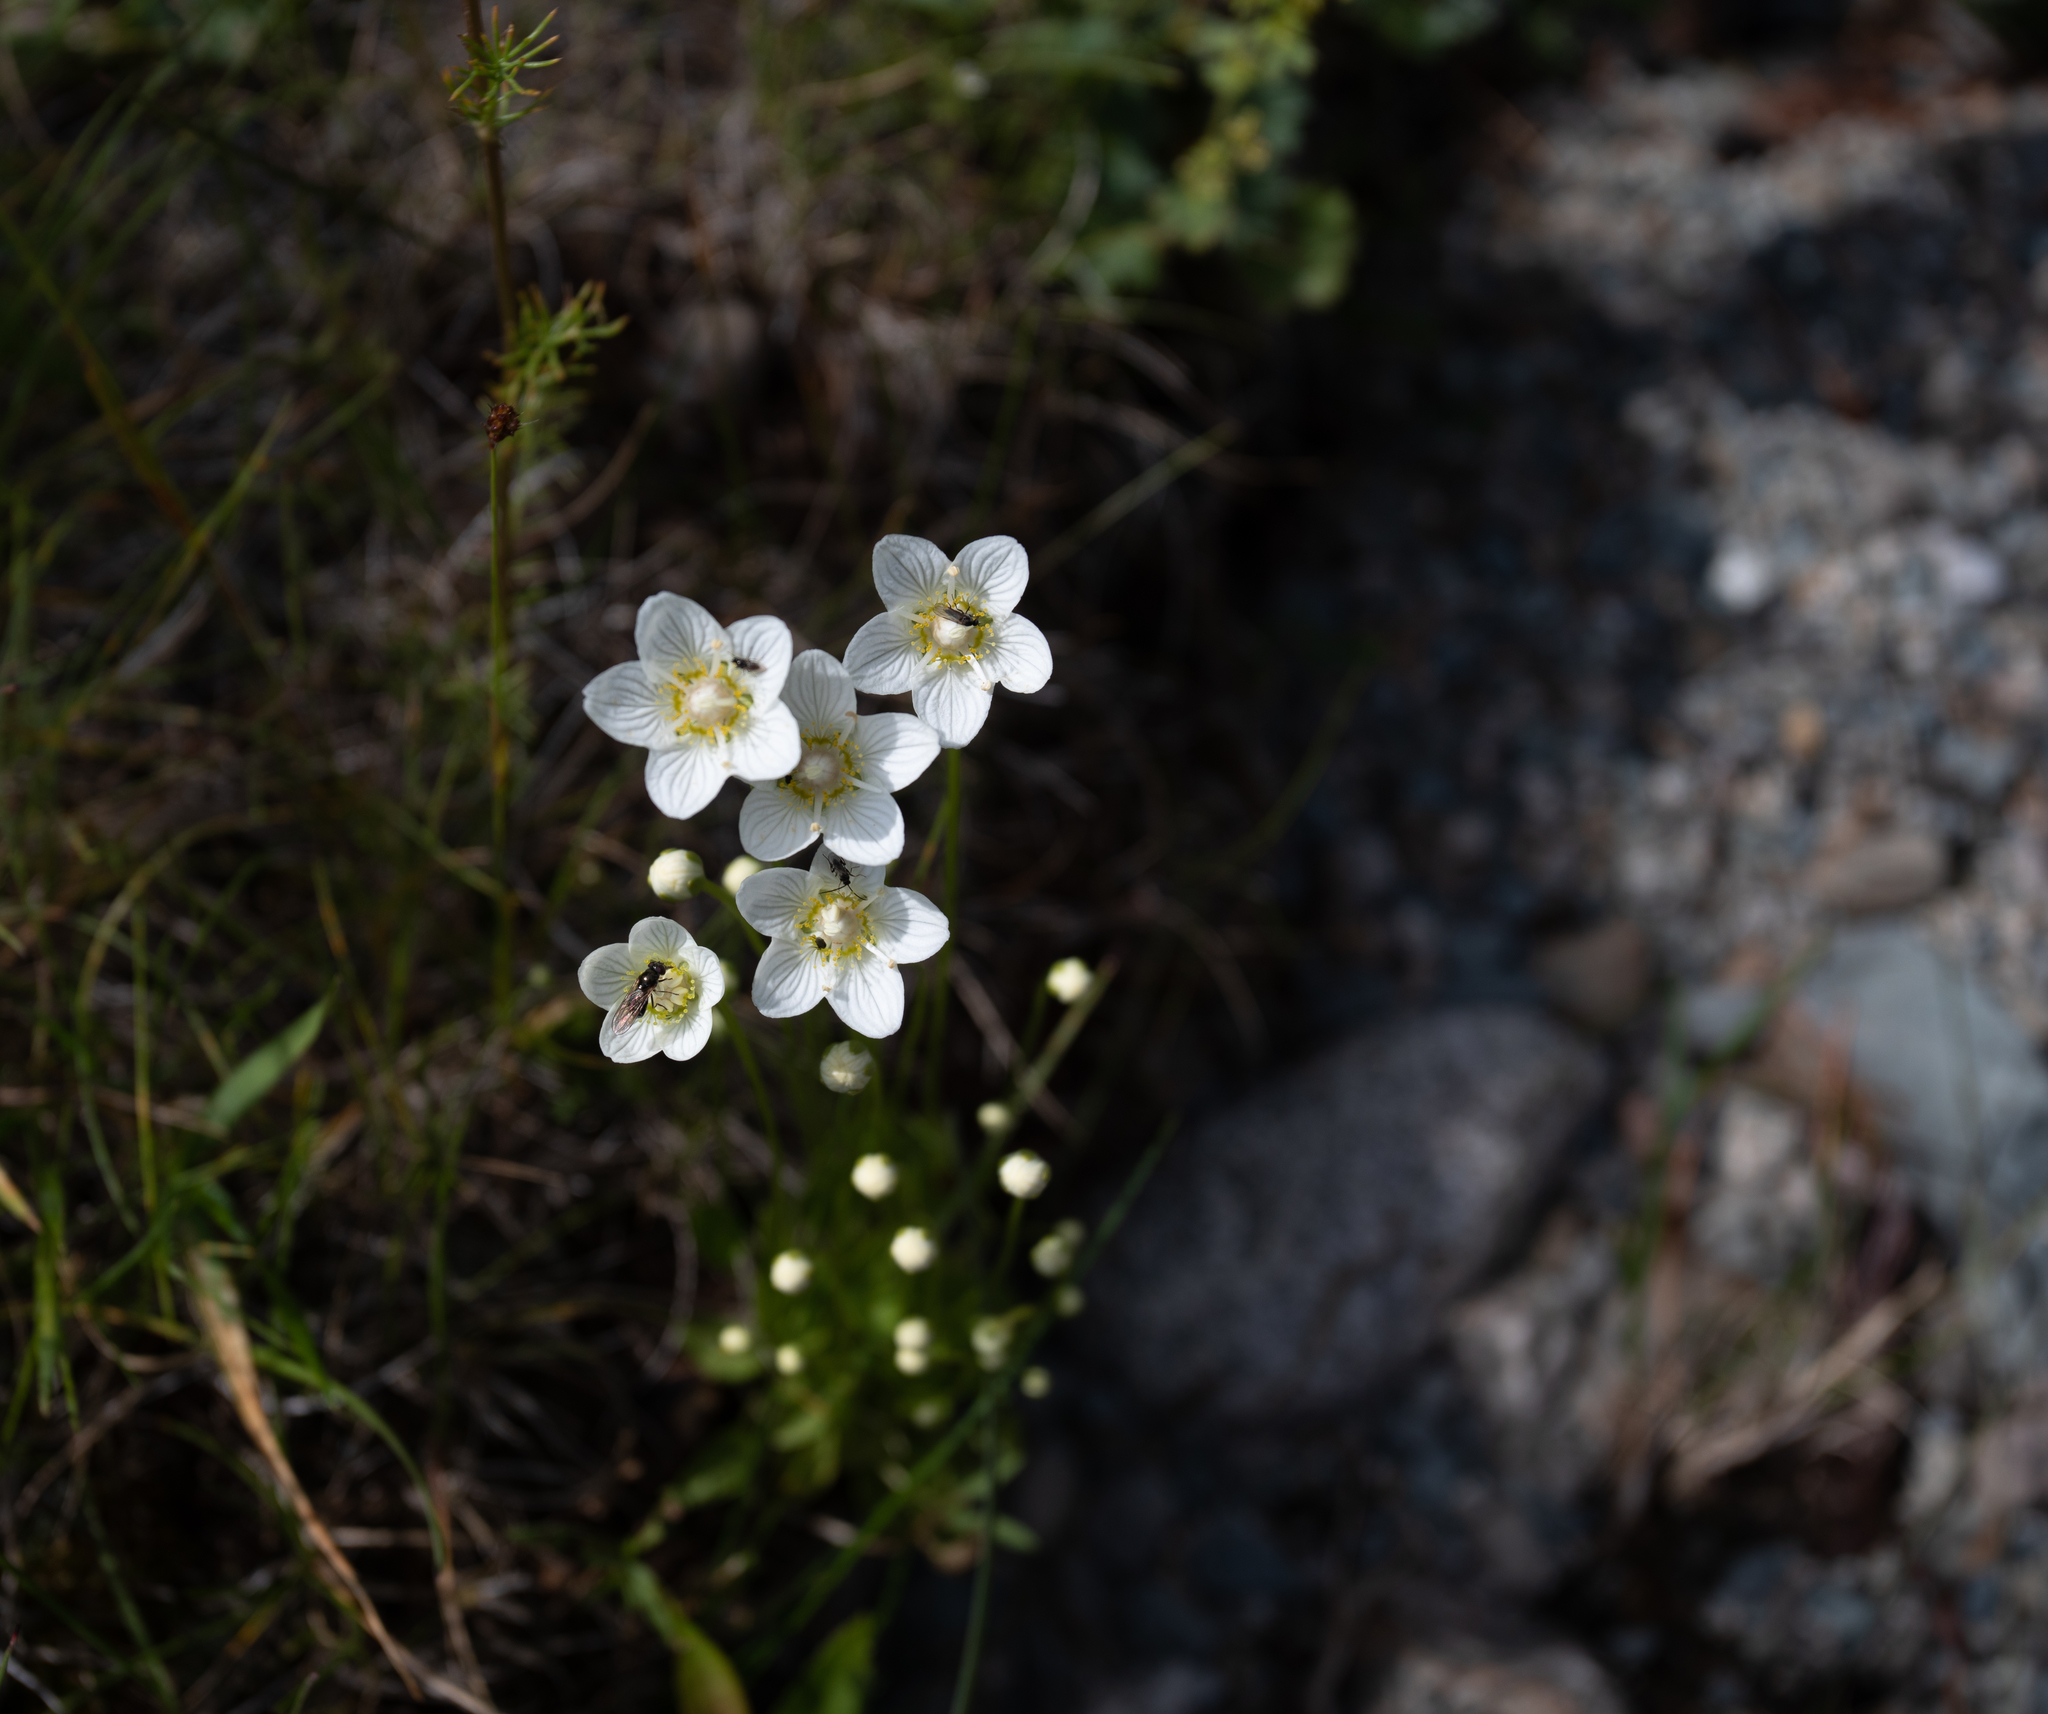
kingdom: Plantae
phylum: Tracheophyta
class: Magnoliopsida
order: Celastrales
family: Parnassiaceae
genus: Parnassia
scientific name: Parnassia palustris
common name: Grass-of-parnassus
